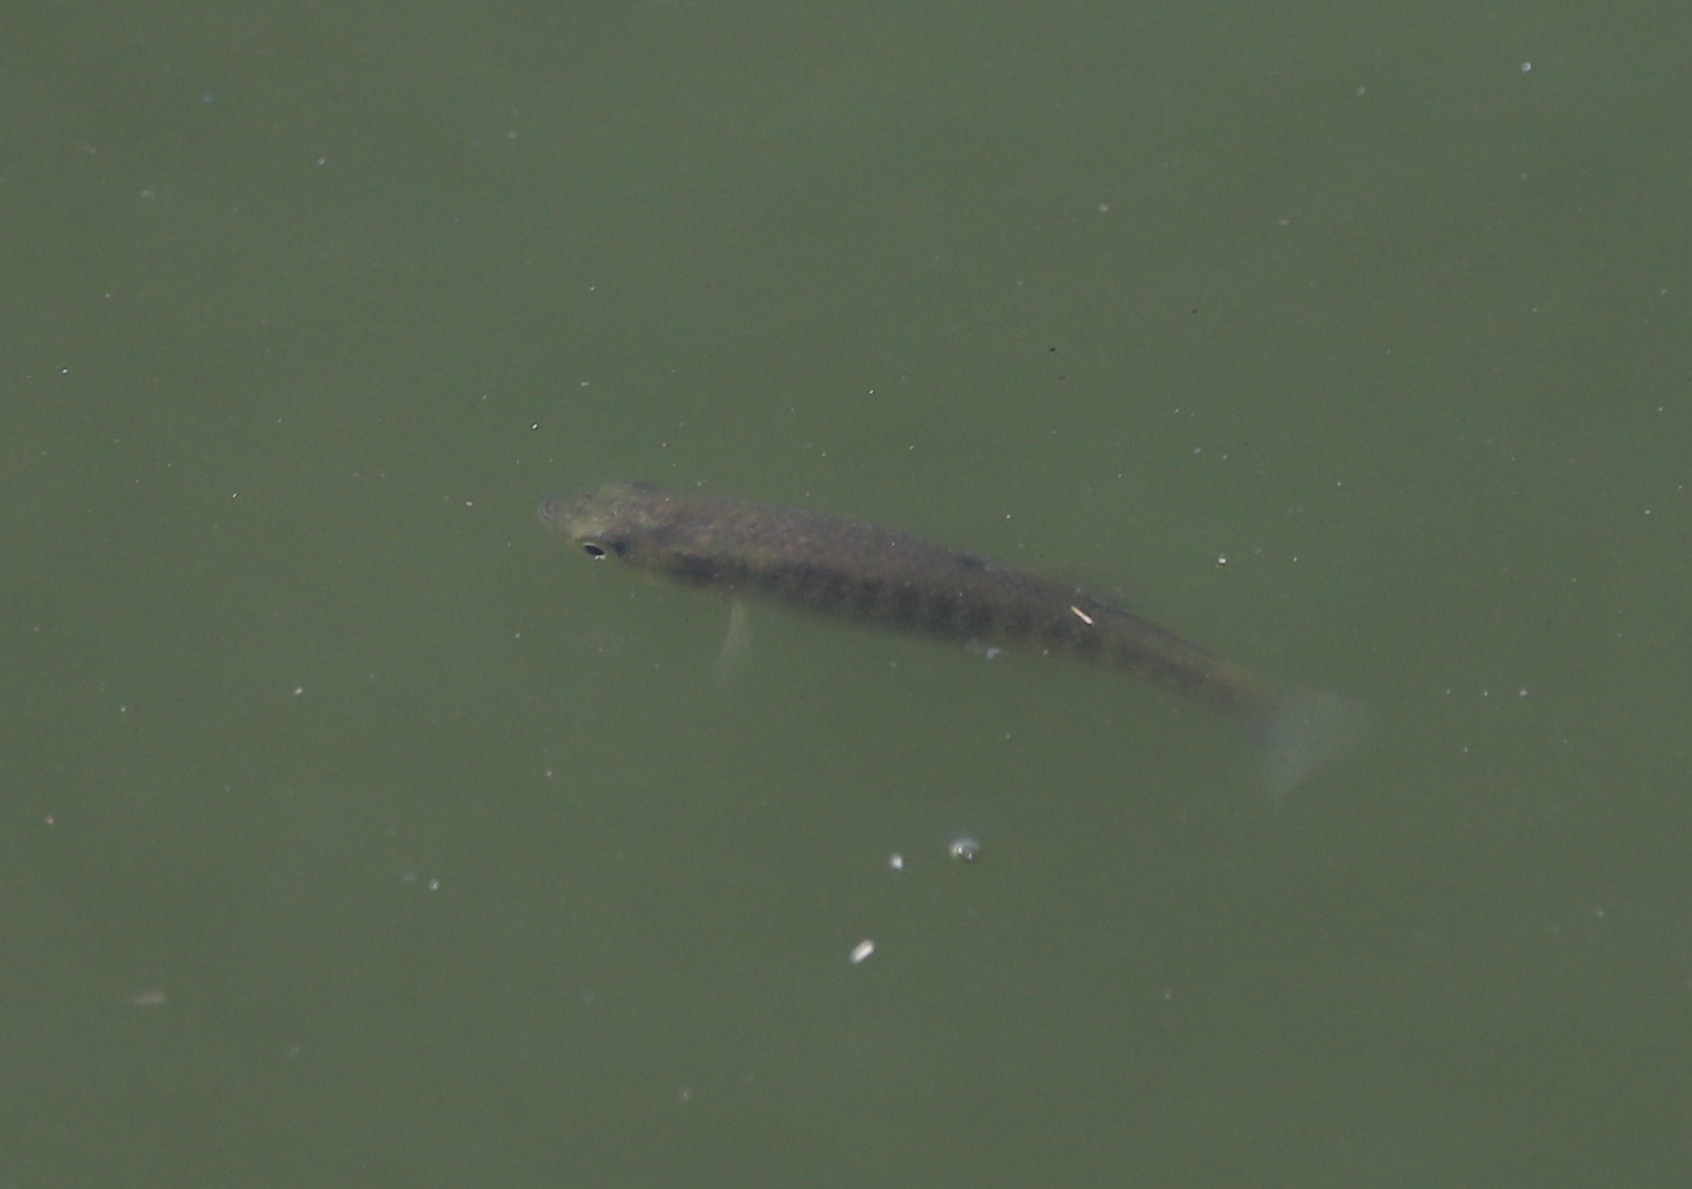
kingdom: Animalia
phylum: Chordata
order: Cyprinodontiformes
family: Fundulidae
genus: Fundulus
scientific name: Fundulus heteroclitus
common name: Mummichog
